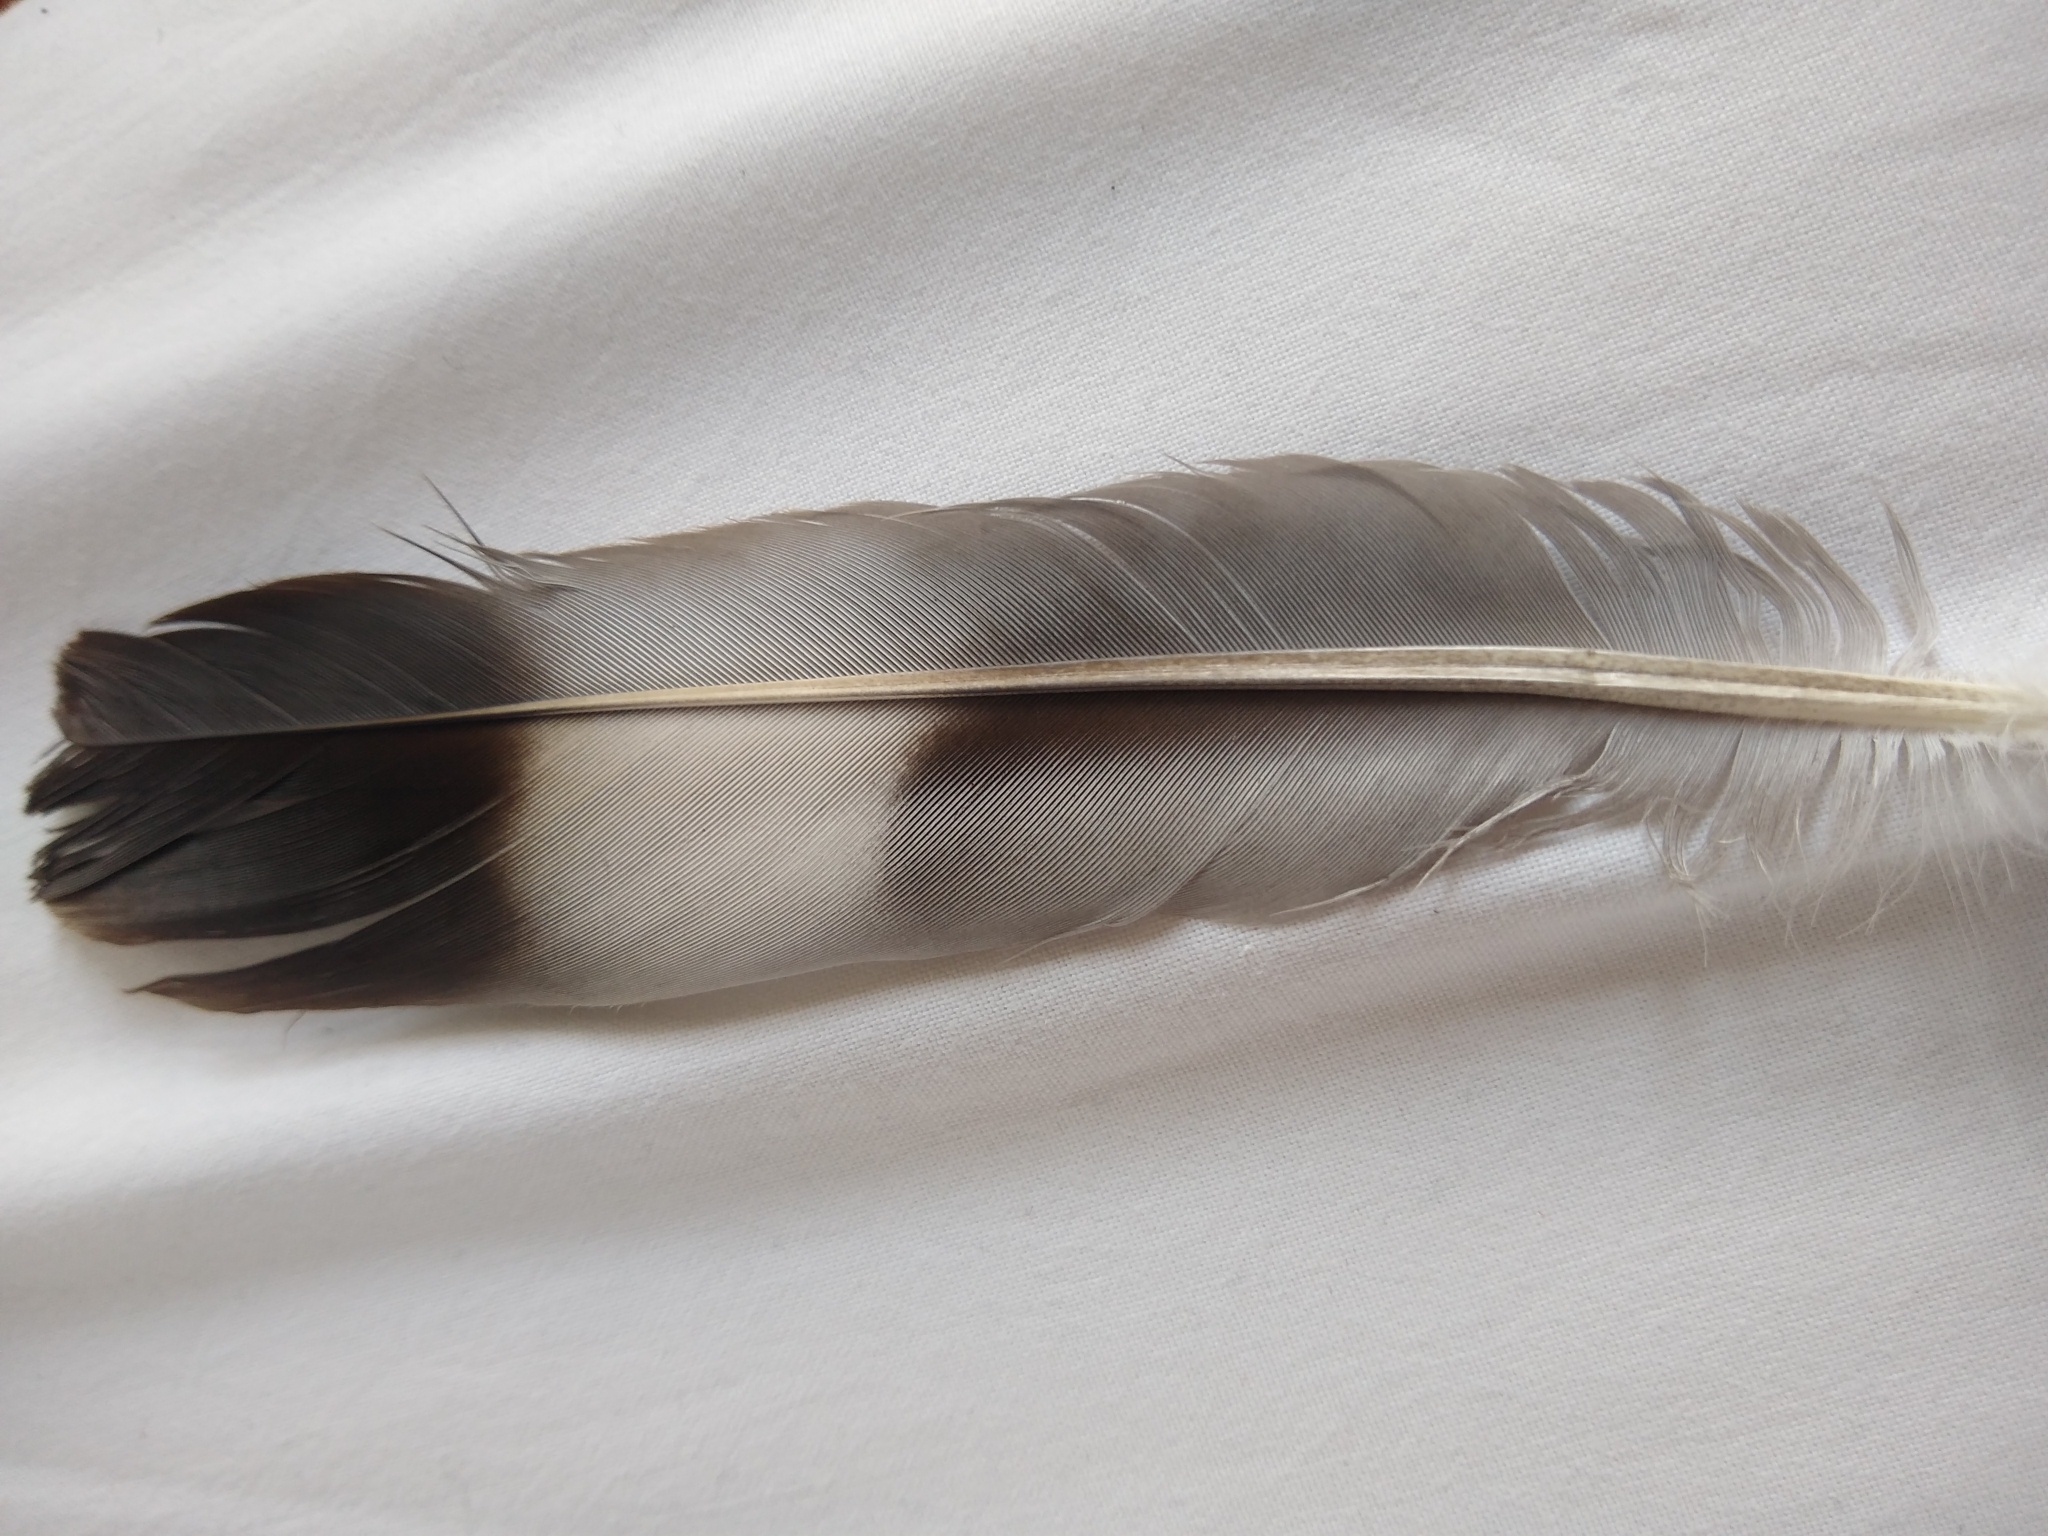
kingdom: Animalia
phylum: Chordata
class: Aves
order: Columbiformes
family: Columbidae
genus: Columba
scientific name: Columba palumbus
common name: Common wood pigeon
